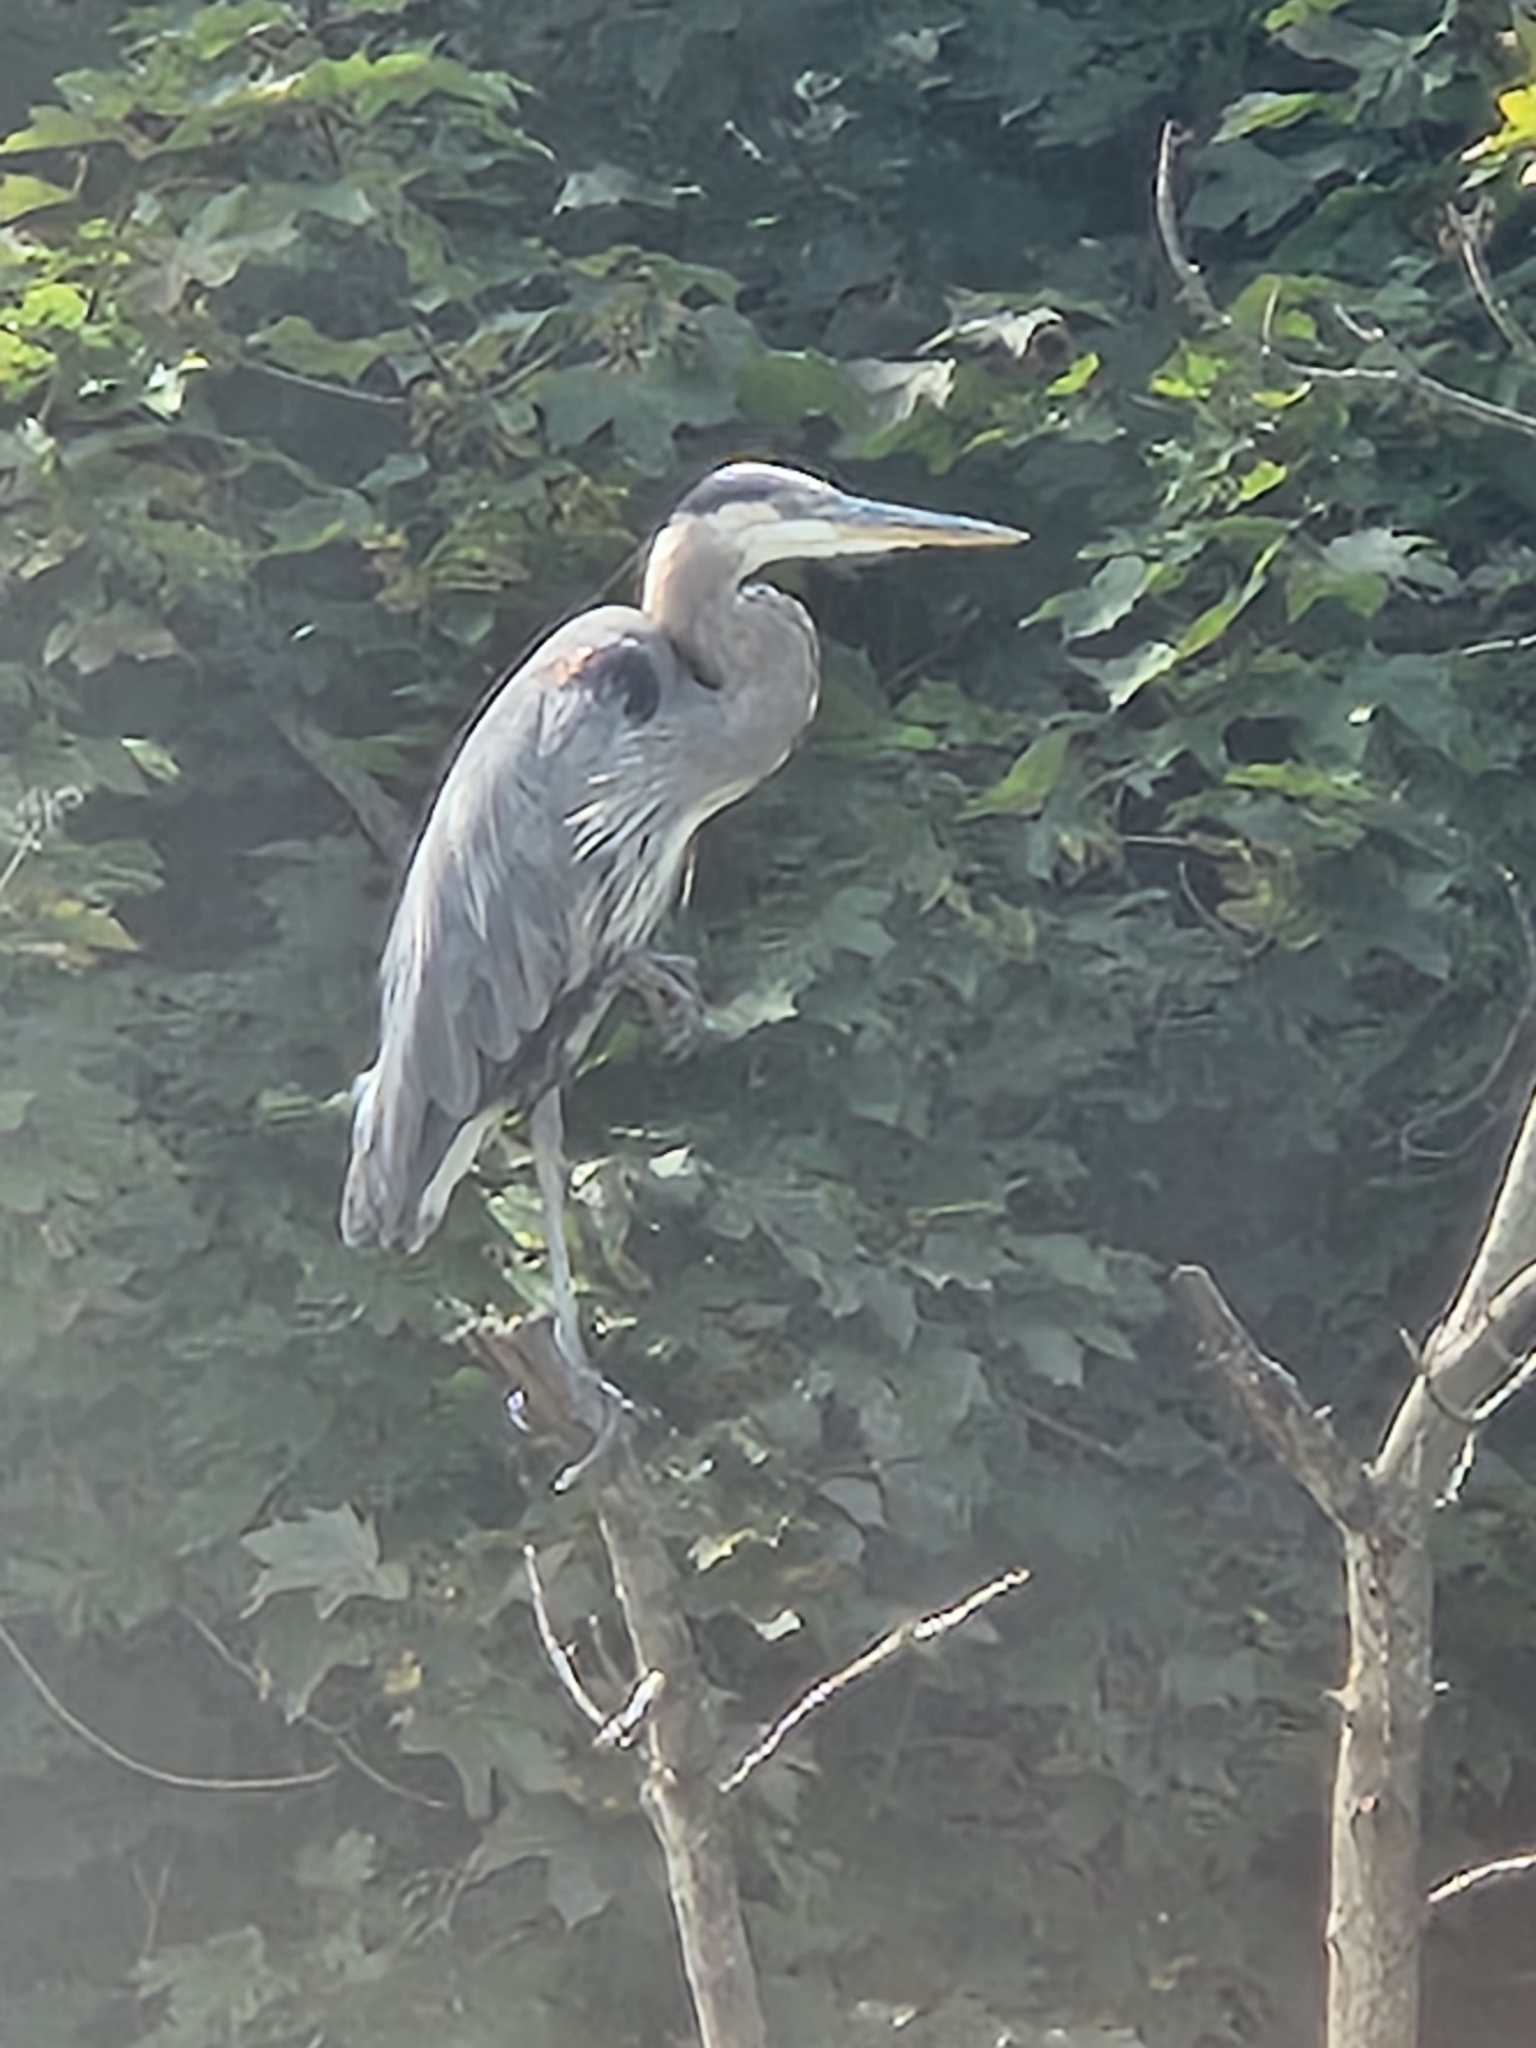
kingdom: Animalia
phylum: Chordata
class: Aves
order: Pelecaniformes
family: Ardeidae
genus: Ardea
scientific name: Ardea herodias
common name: Great blue heron
